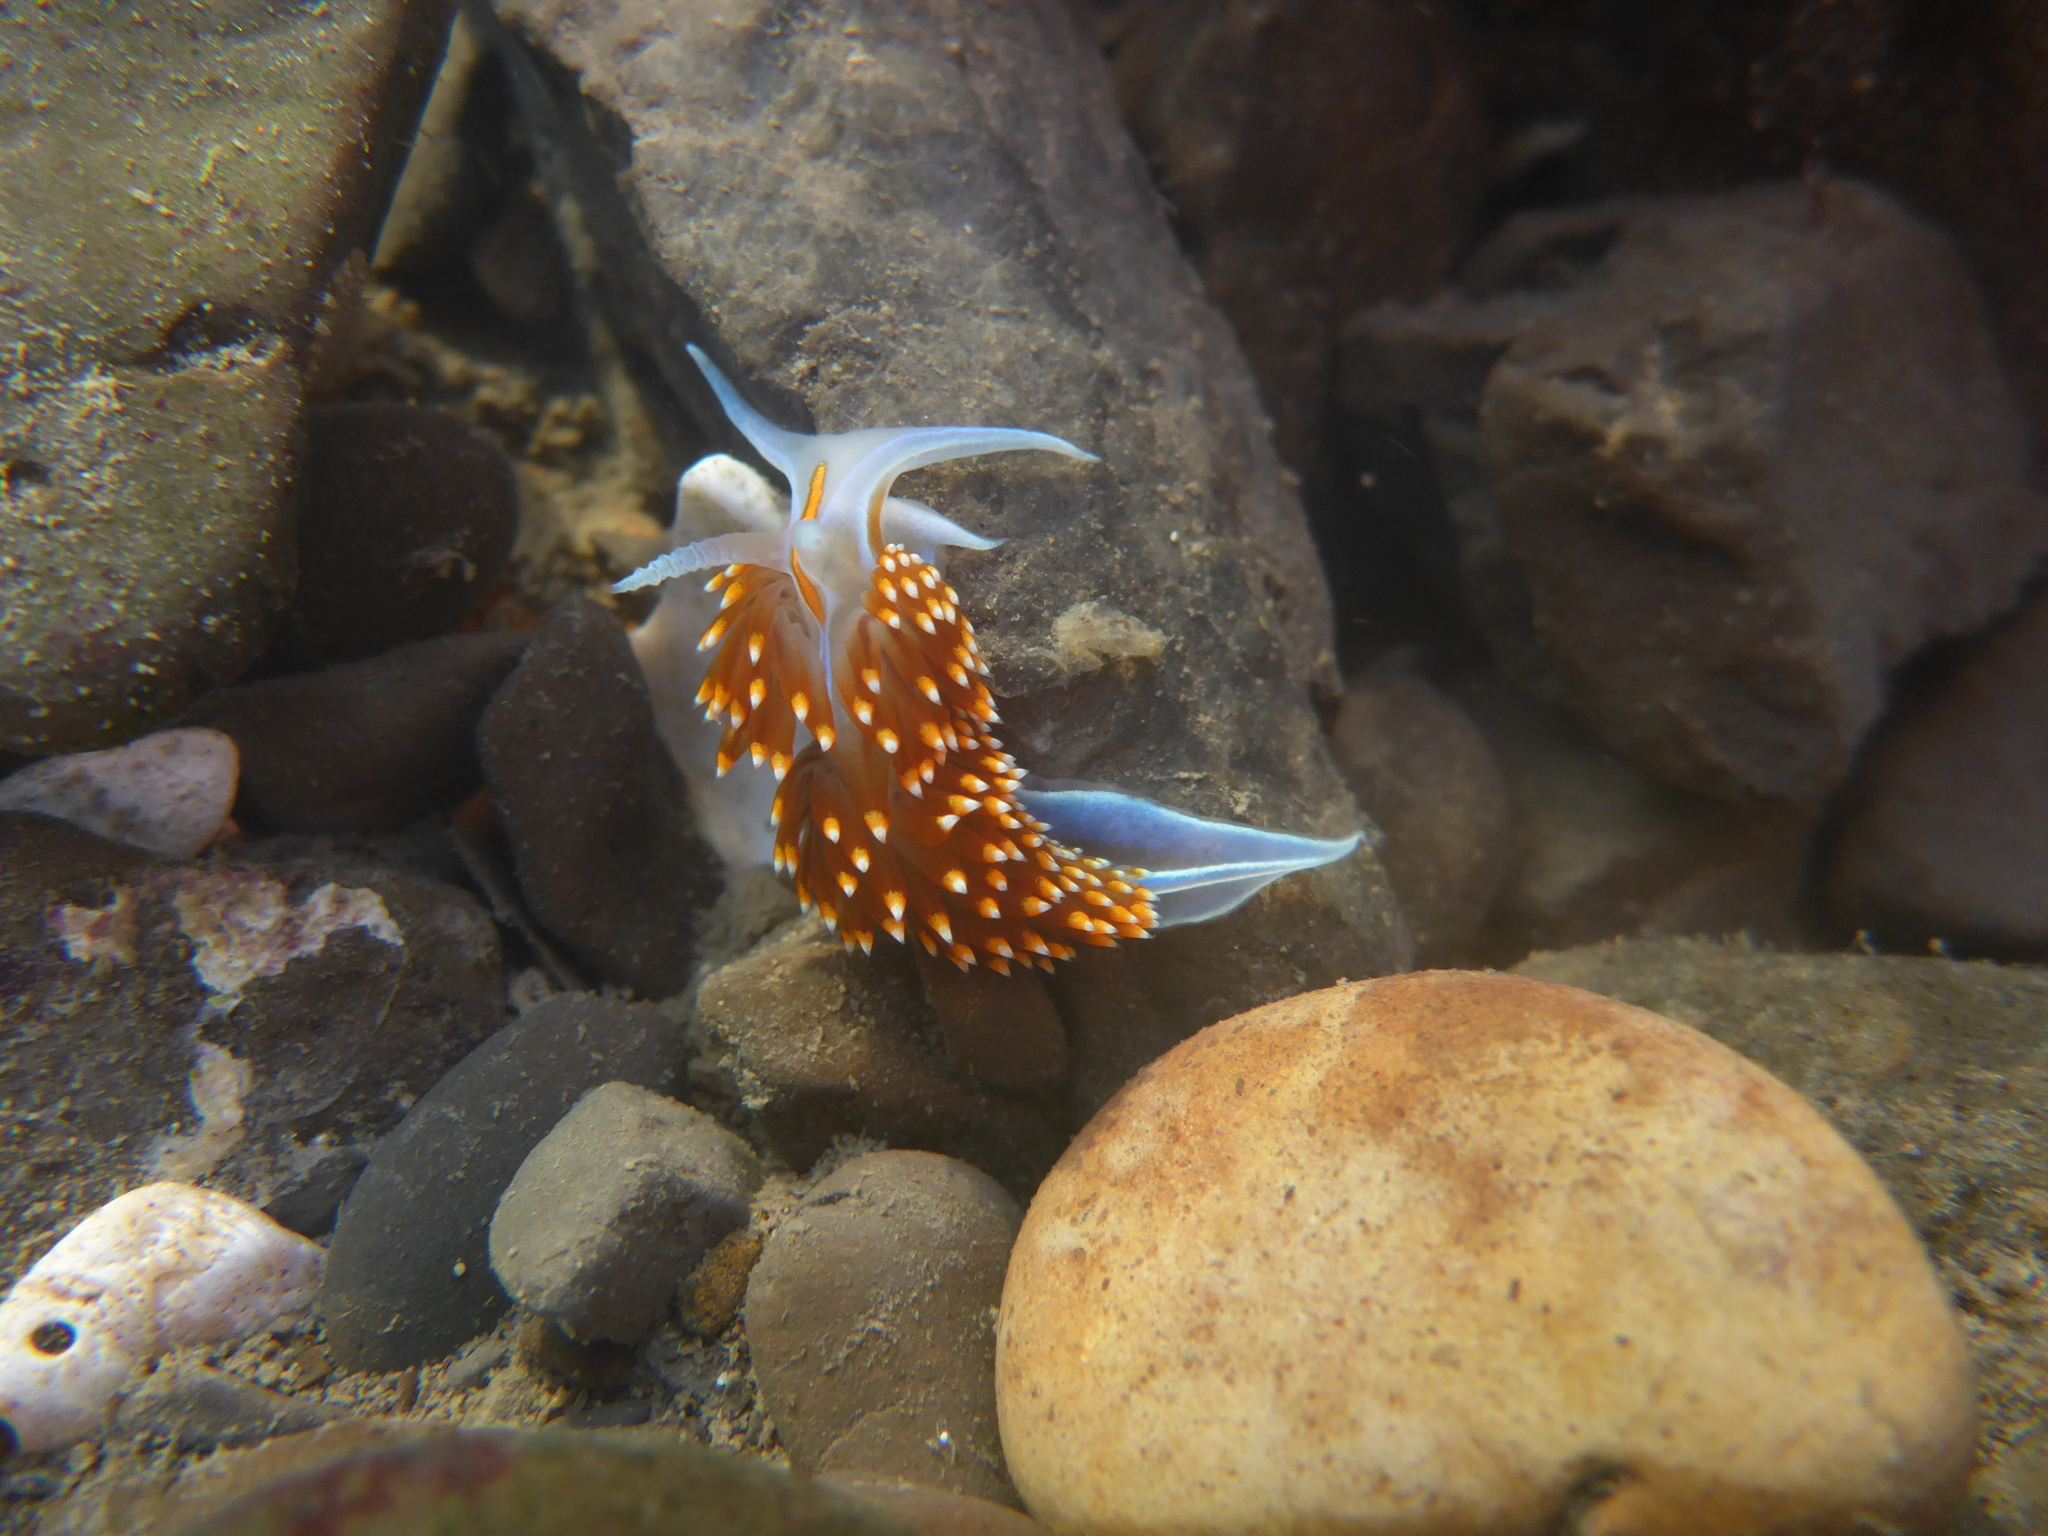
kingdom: Animalia
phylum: Mollusca
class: Gastropoda
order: Nudibranchia
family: Myrrhinidae
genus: Hermissenda
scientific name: Hermissenda opalescens
